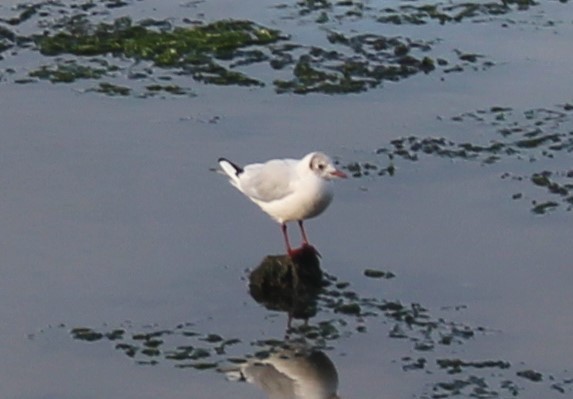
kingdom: Animalia
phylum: Chordata
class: Aves
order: Charadriiformes
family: Laridae
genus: Chroicocephalus
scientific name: Chroicocephalus ridibundus
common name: Black-headed gull
